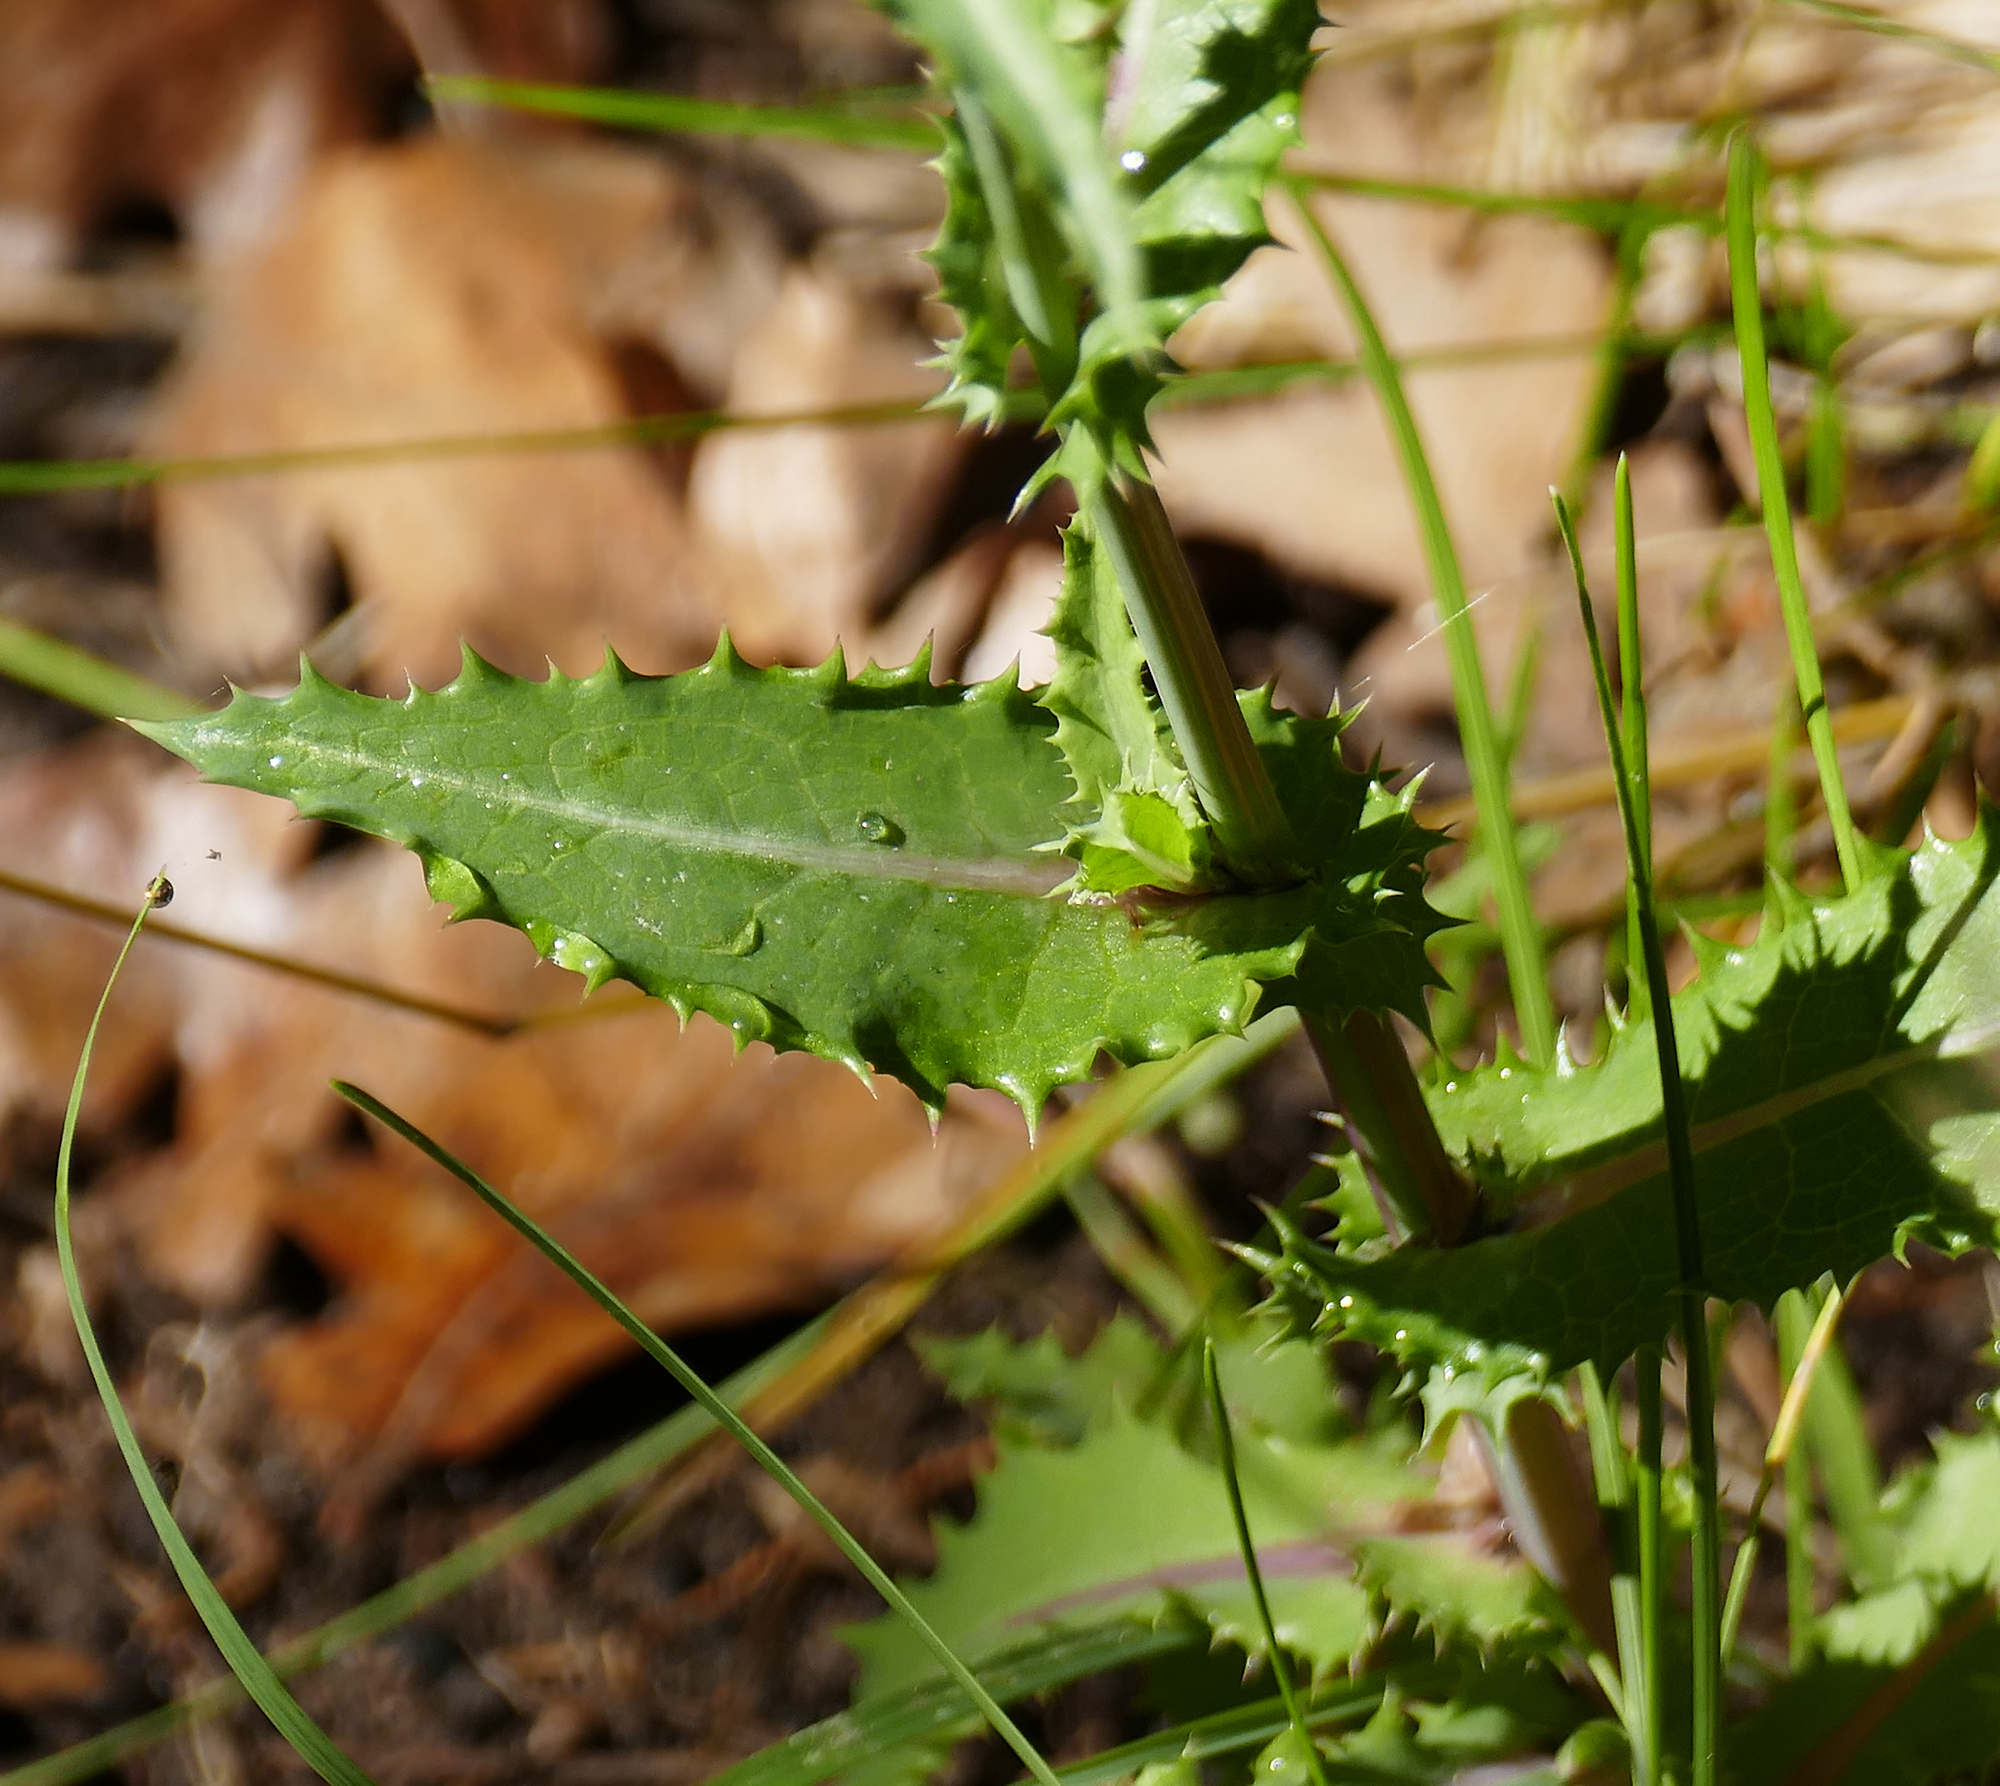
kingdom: Plantae
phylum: Tracheophyta
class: Magnoliopsida
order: Asterales
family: Asteraceae
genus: Sonchus
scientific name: Sonchus asper
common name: Prickly sow-thistle
